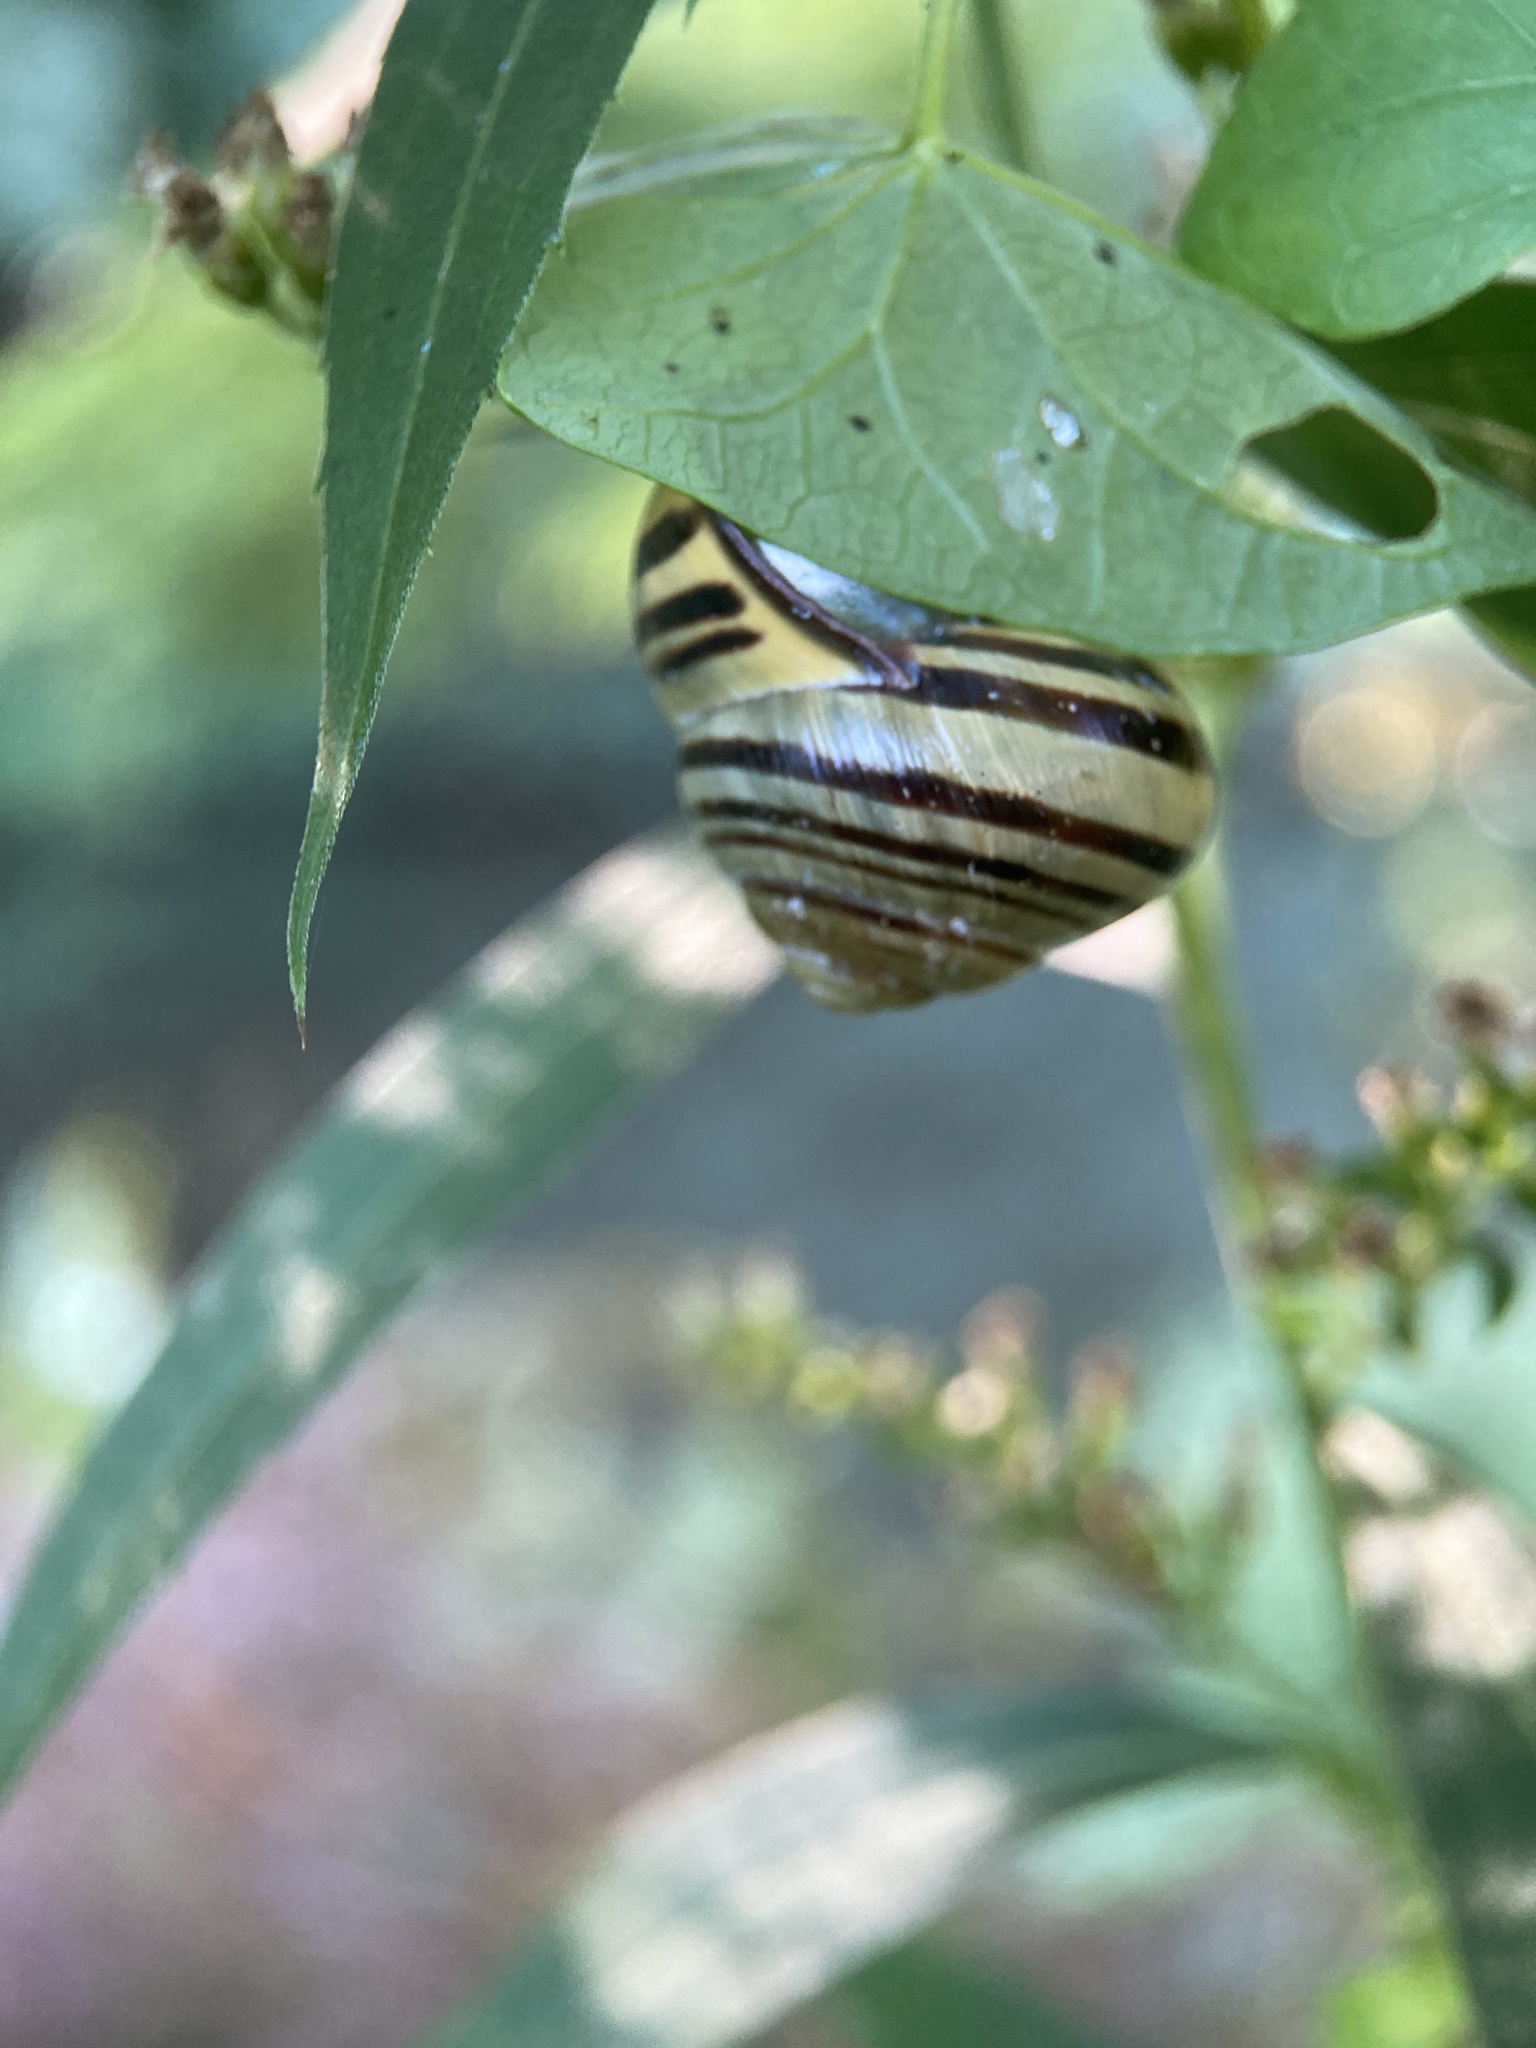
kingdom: Animalia
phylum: Mollusca
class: Gastropoda
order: Stylommatophora
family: Helicidae
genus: Cepaea
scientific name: Cepaea nemoralis
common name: Grovesnail
